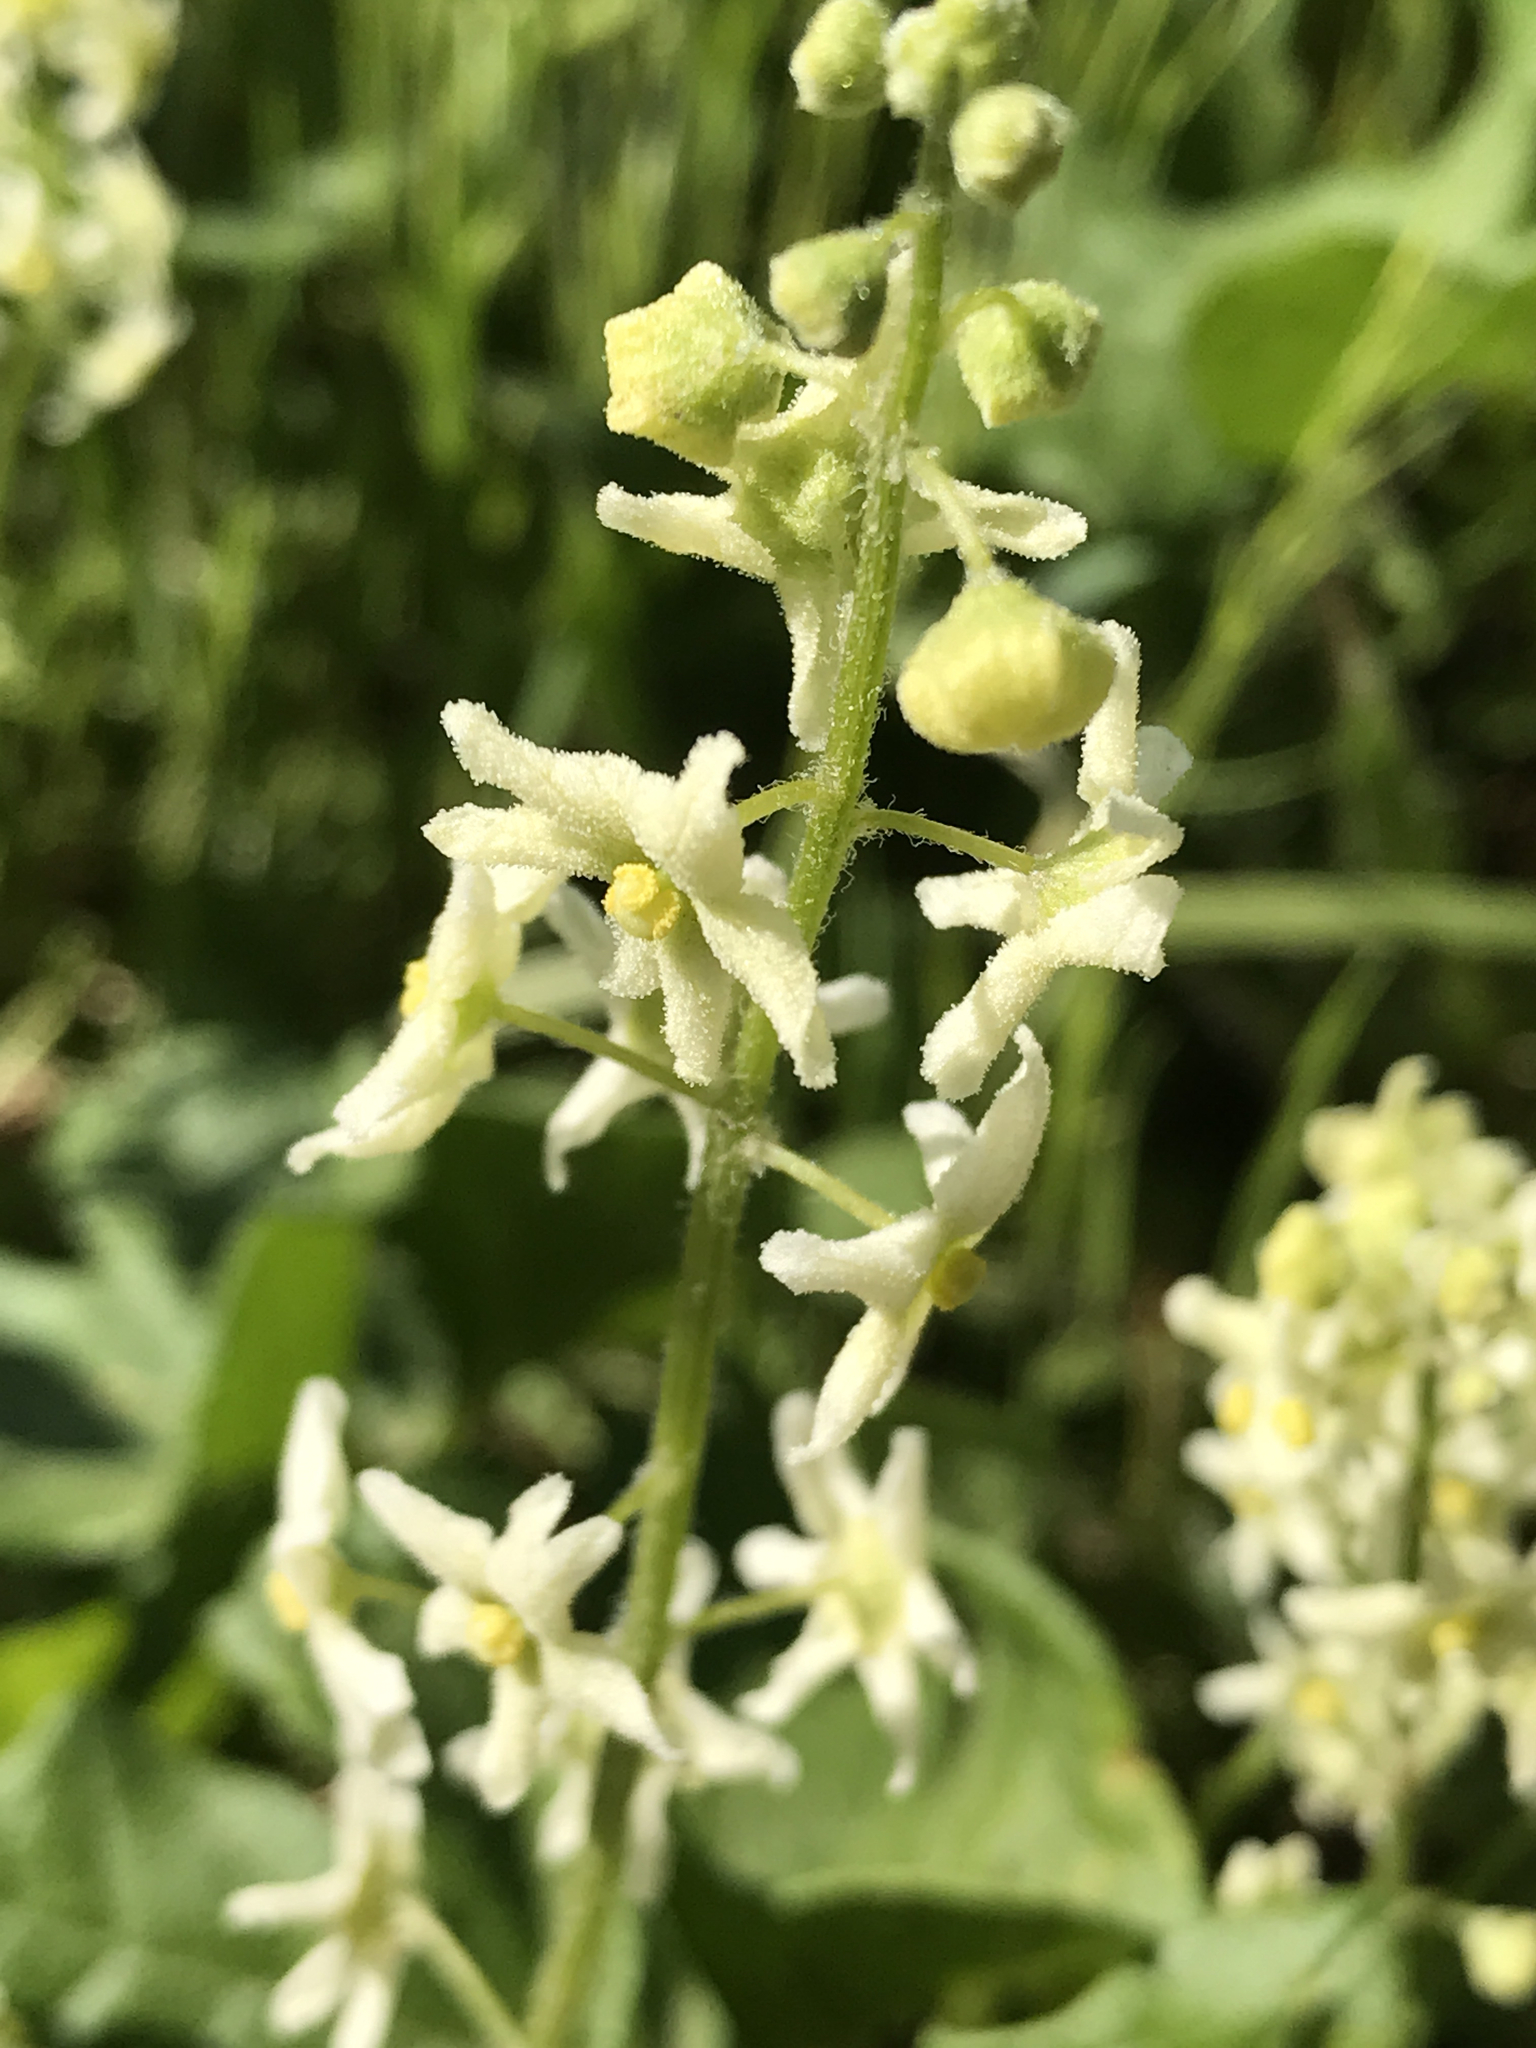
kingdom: Plantae
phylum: Tracheophyta
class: Magnoliopsida
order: Cucurbitales
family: Cucurbitaceae
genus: Marah
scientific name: Marah fabacea
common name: California manroot
